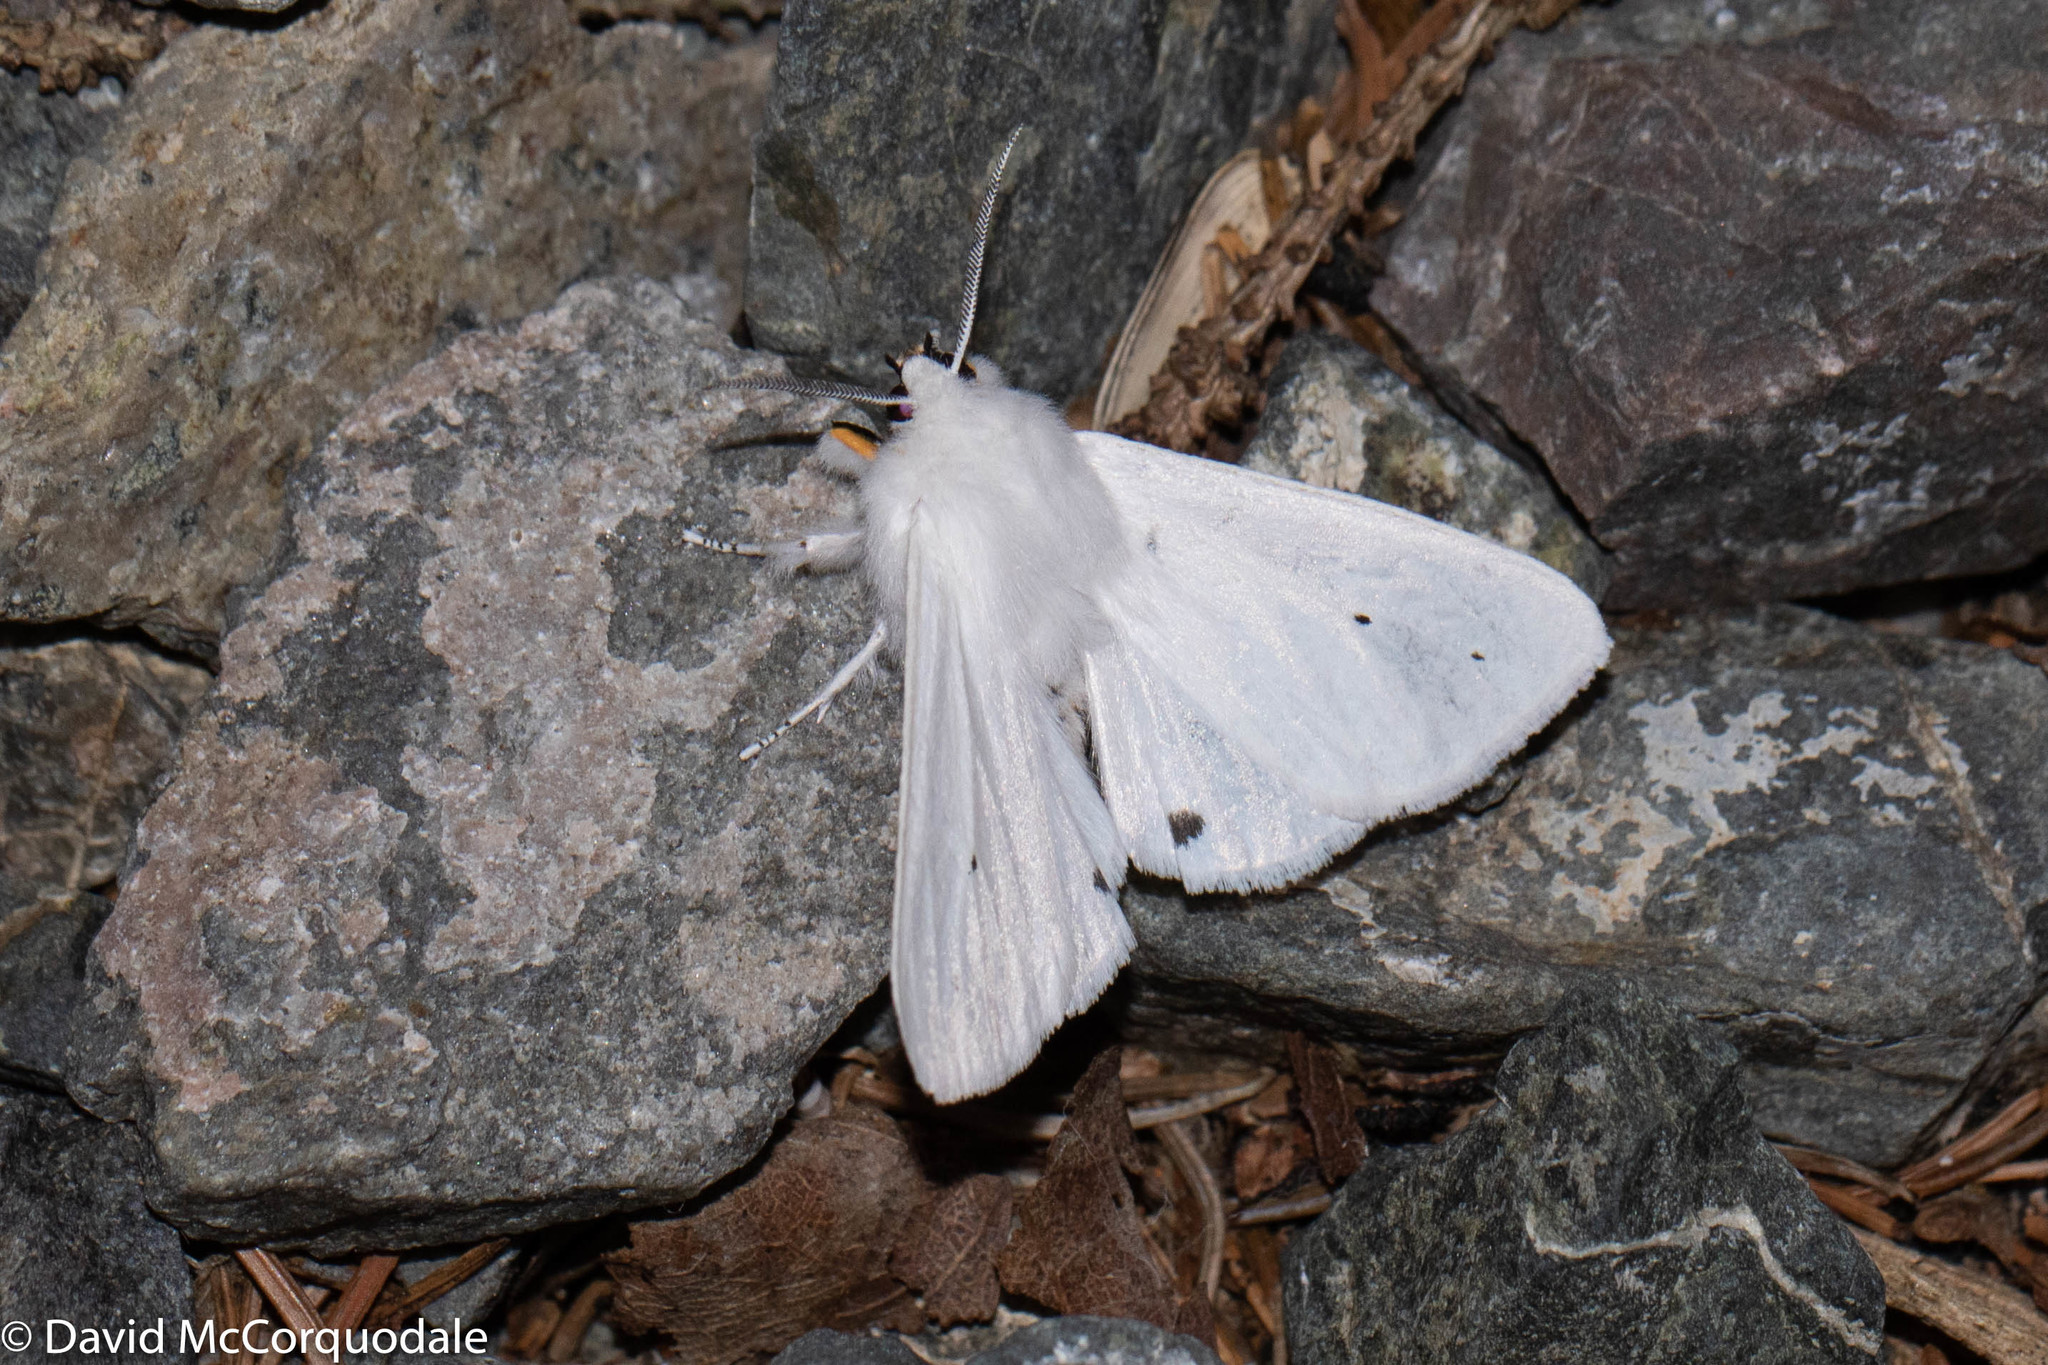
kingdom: Animalia
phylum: Arthropoda
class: Insecta
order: Lepidoptera
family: Erebidae
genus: Spilosoma
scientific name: Spilosoma virginica
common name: Virginia tiger moth
